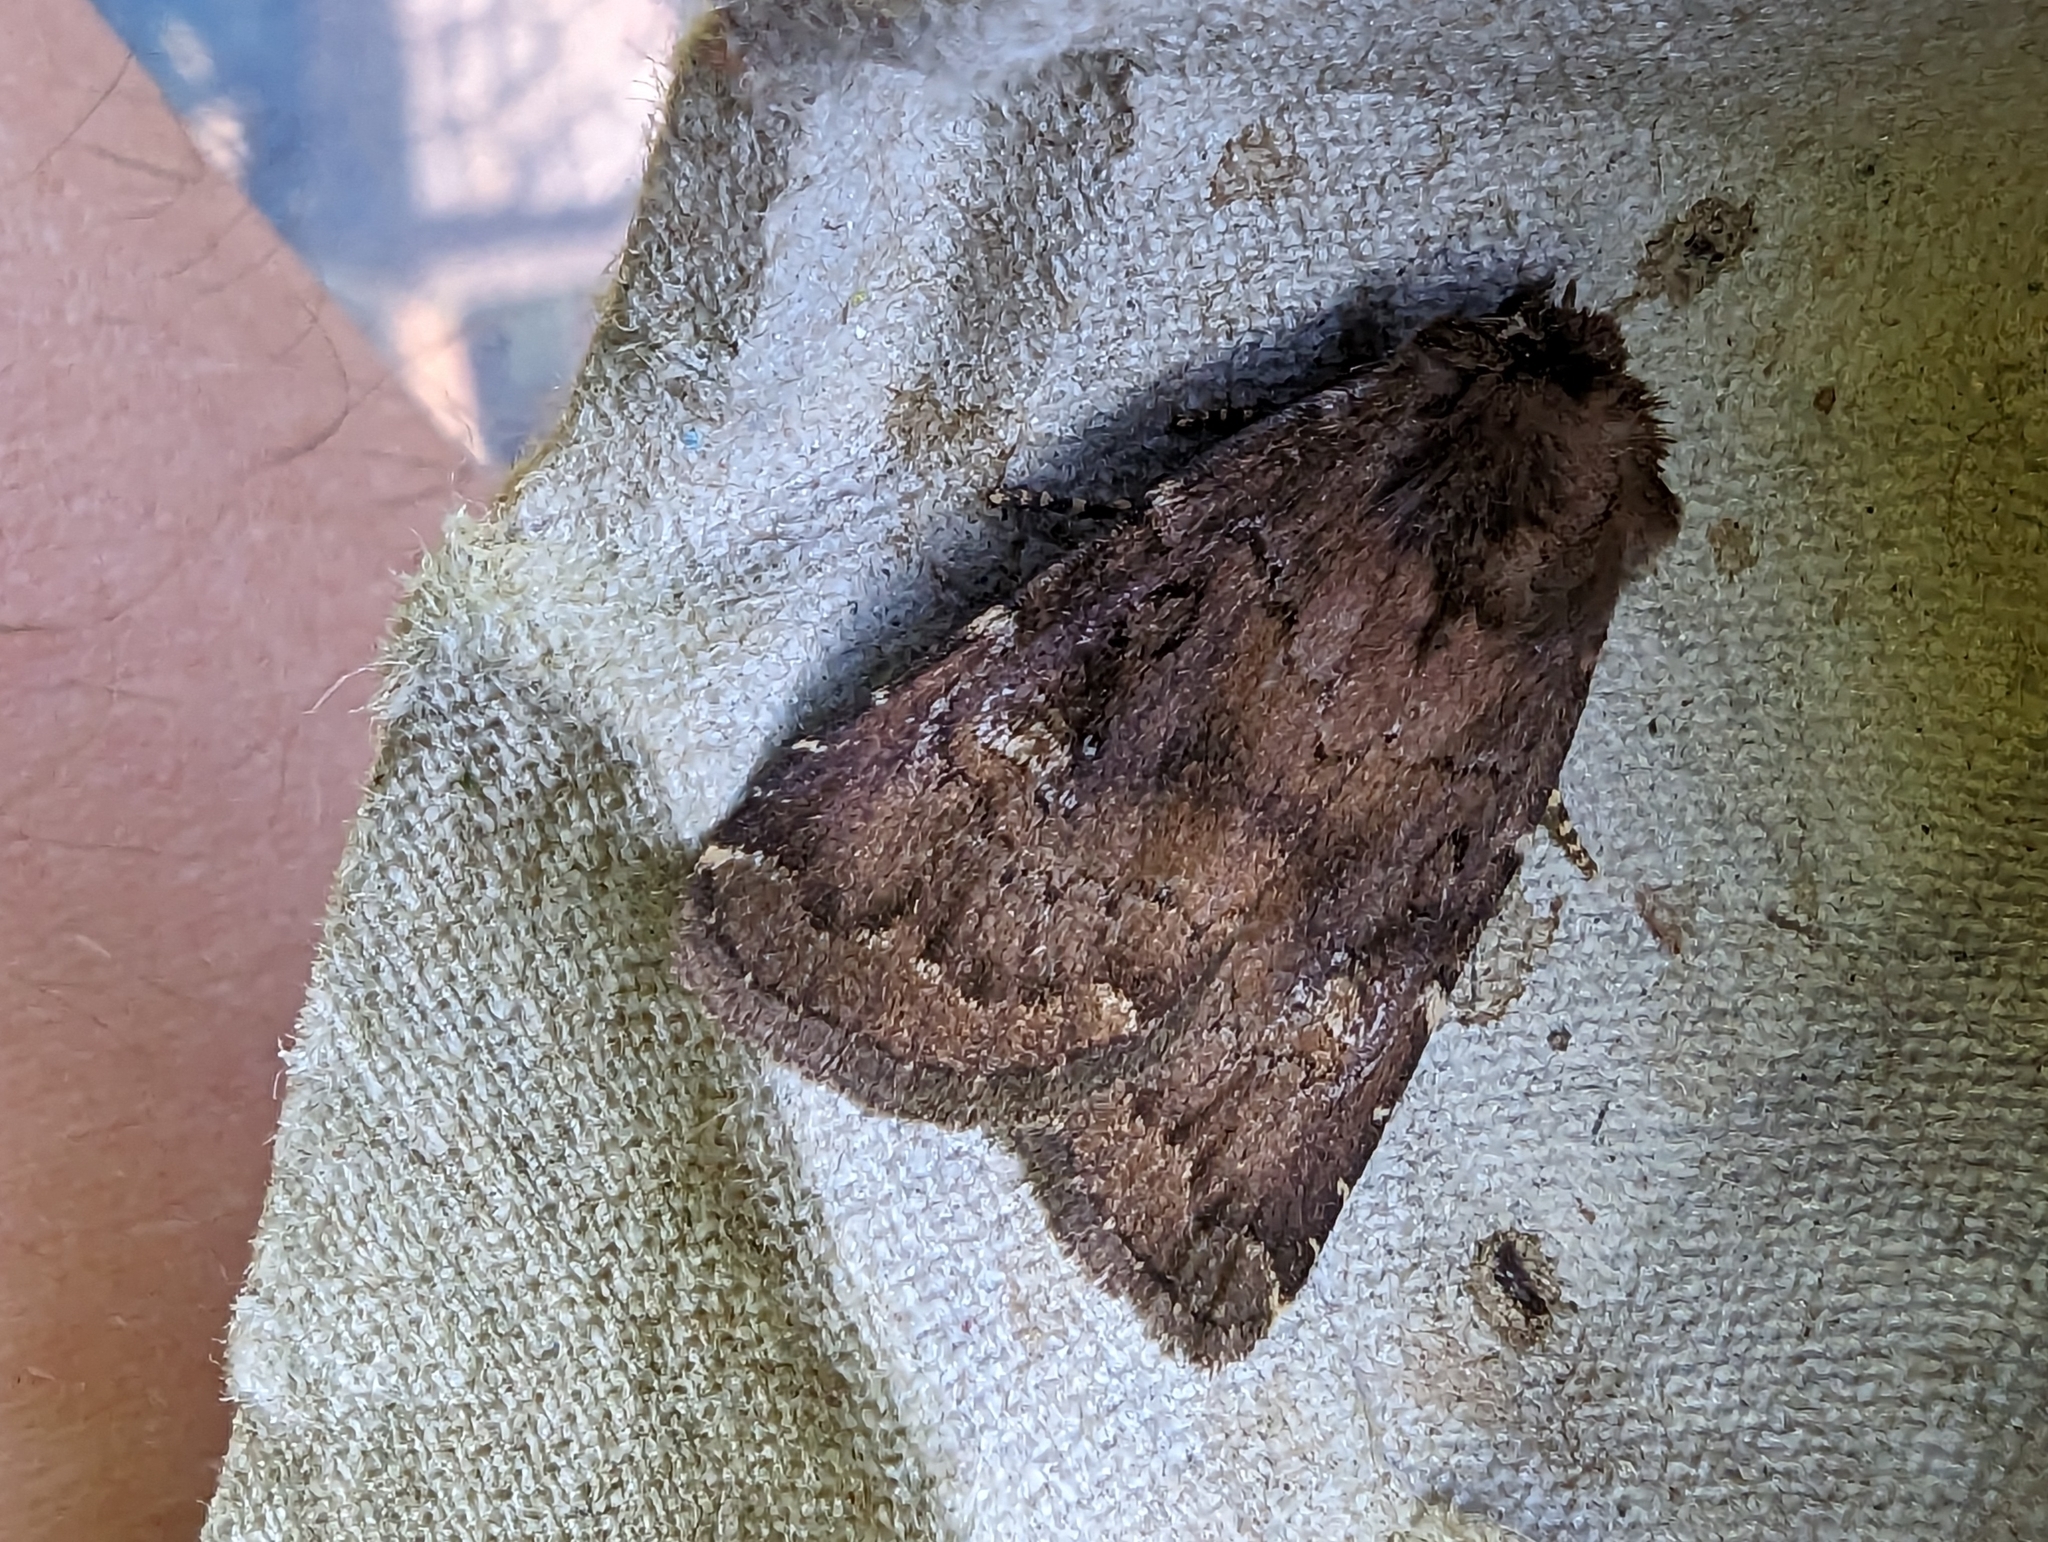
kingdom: Animalia
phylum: Arthropoda
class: Insecta
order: Lepidoptera
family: Noctuidae
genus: Charanyca
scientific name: Charanyca ferruginea
